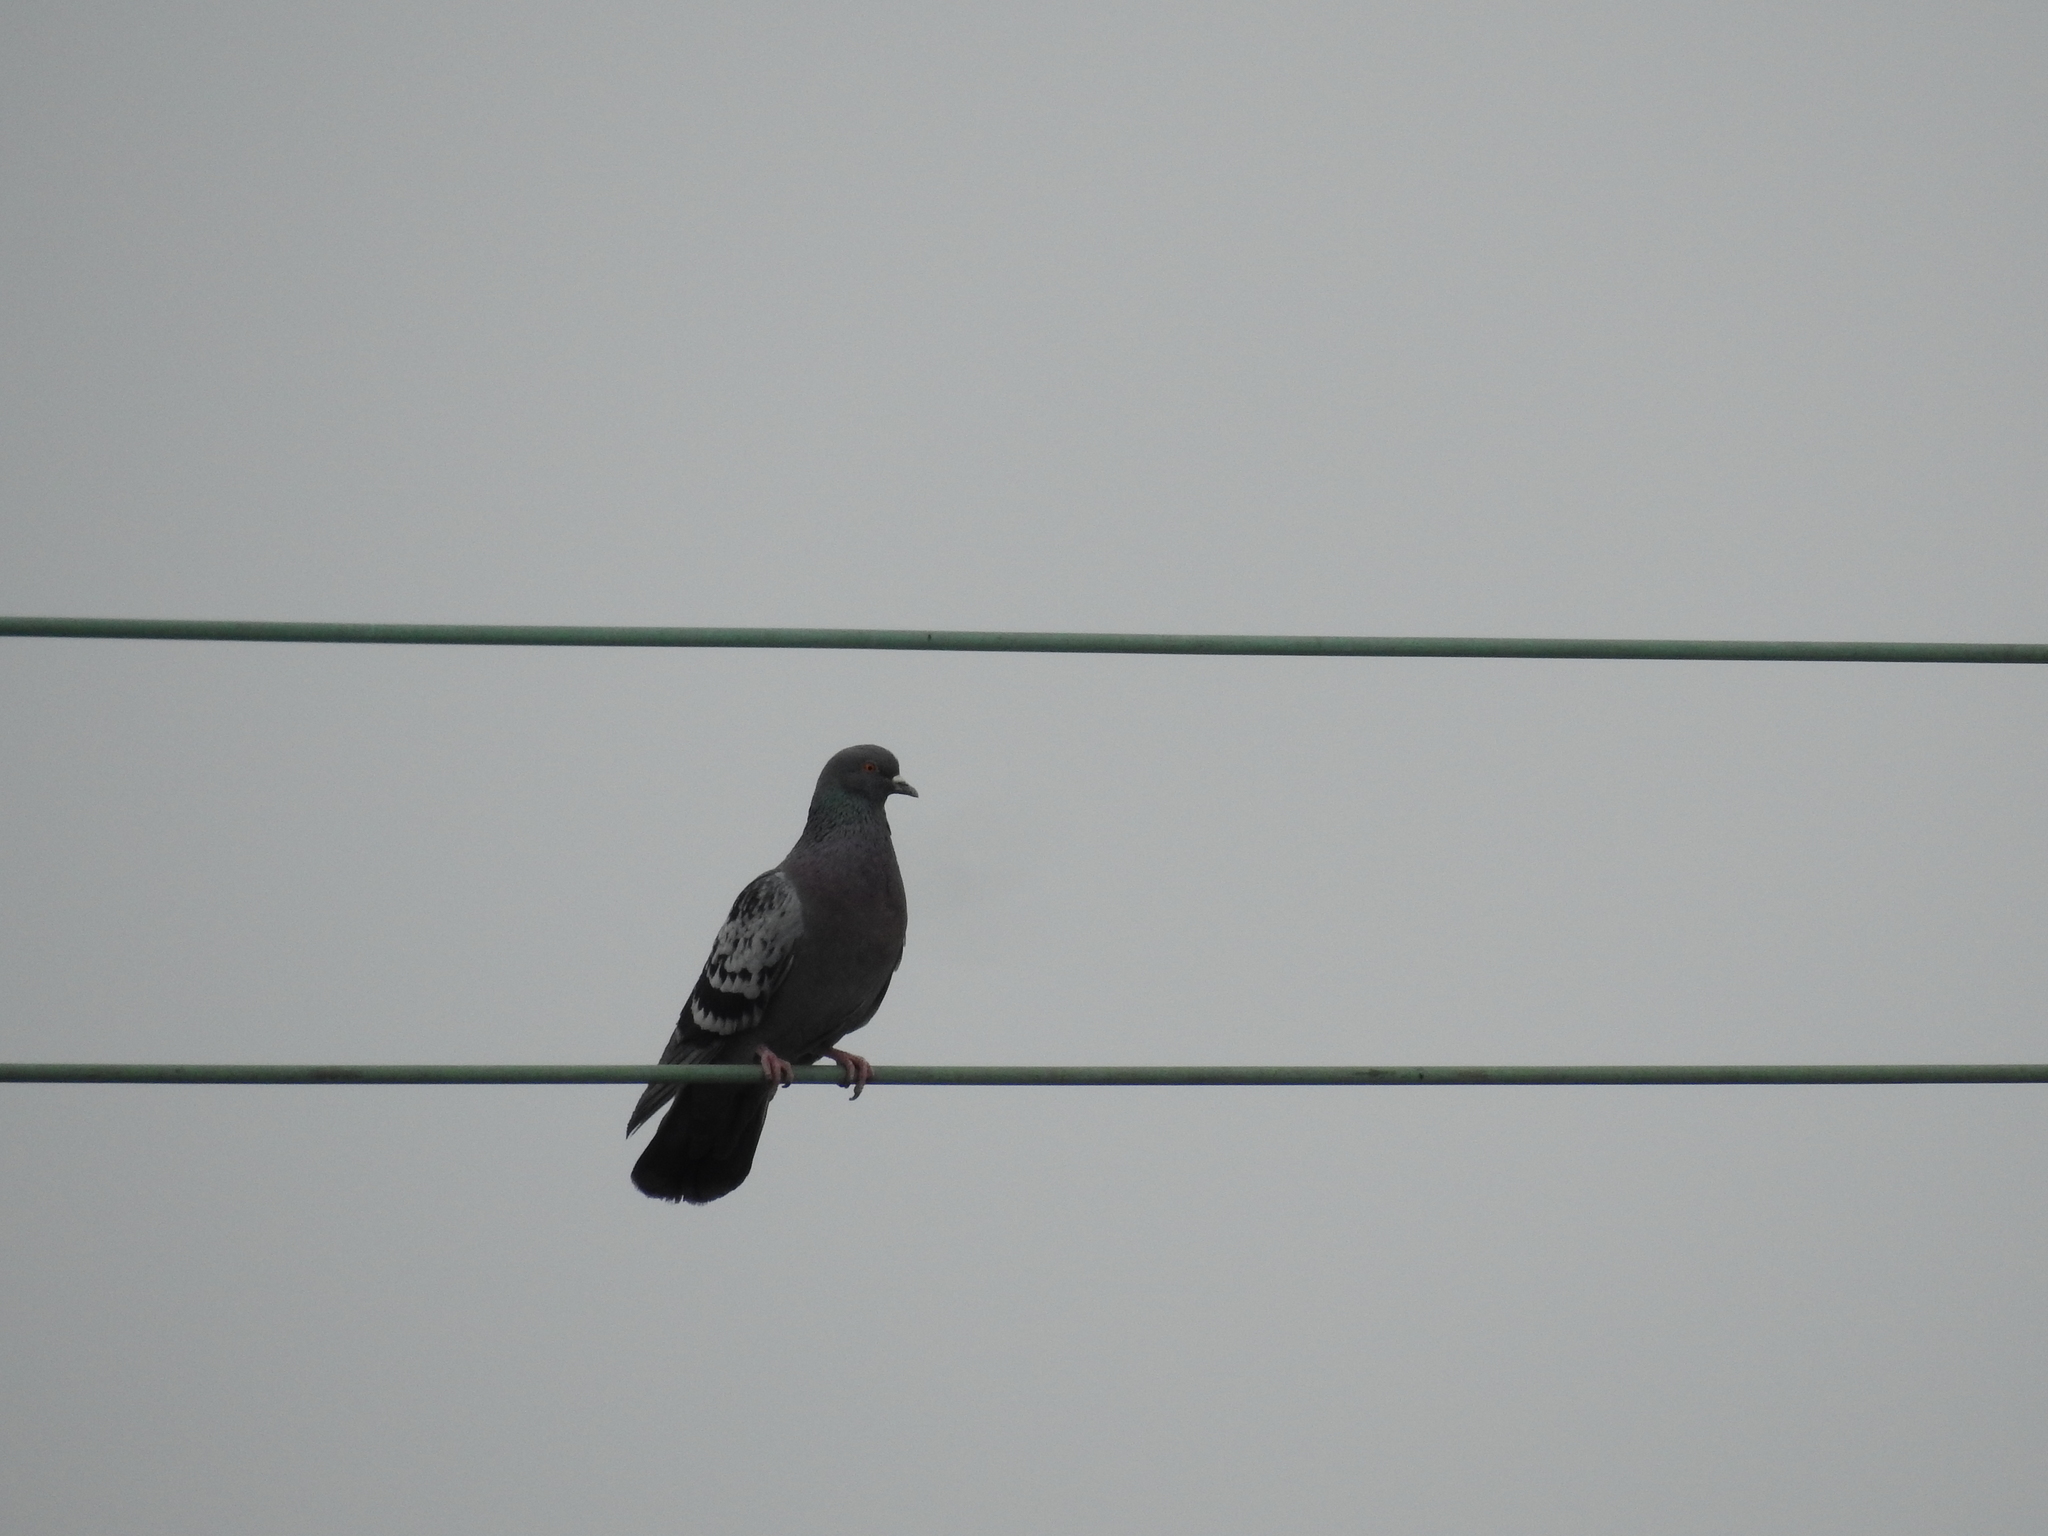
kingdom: Animalia
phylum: Chordata
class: Aves
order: Columbiformes
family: Columbidae
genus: Columba
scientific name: Columba livia
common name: Rock pigeon
